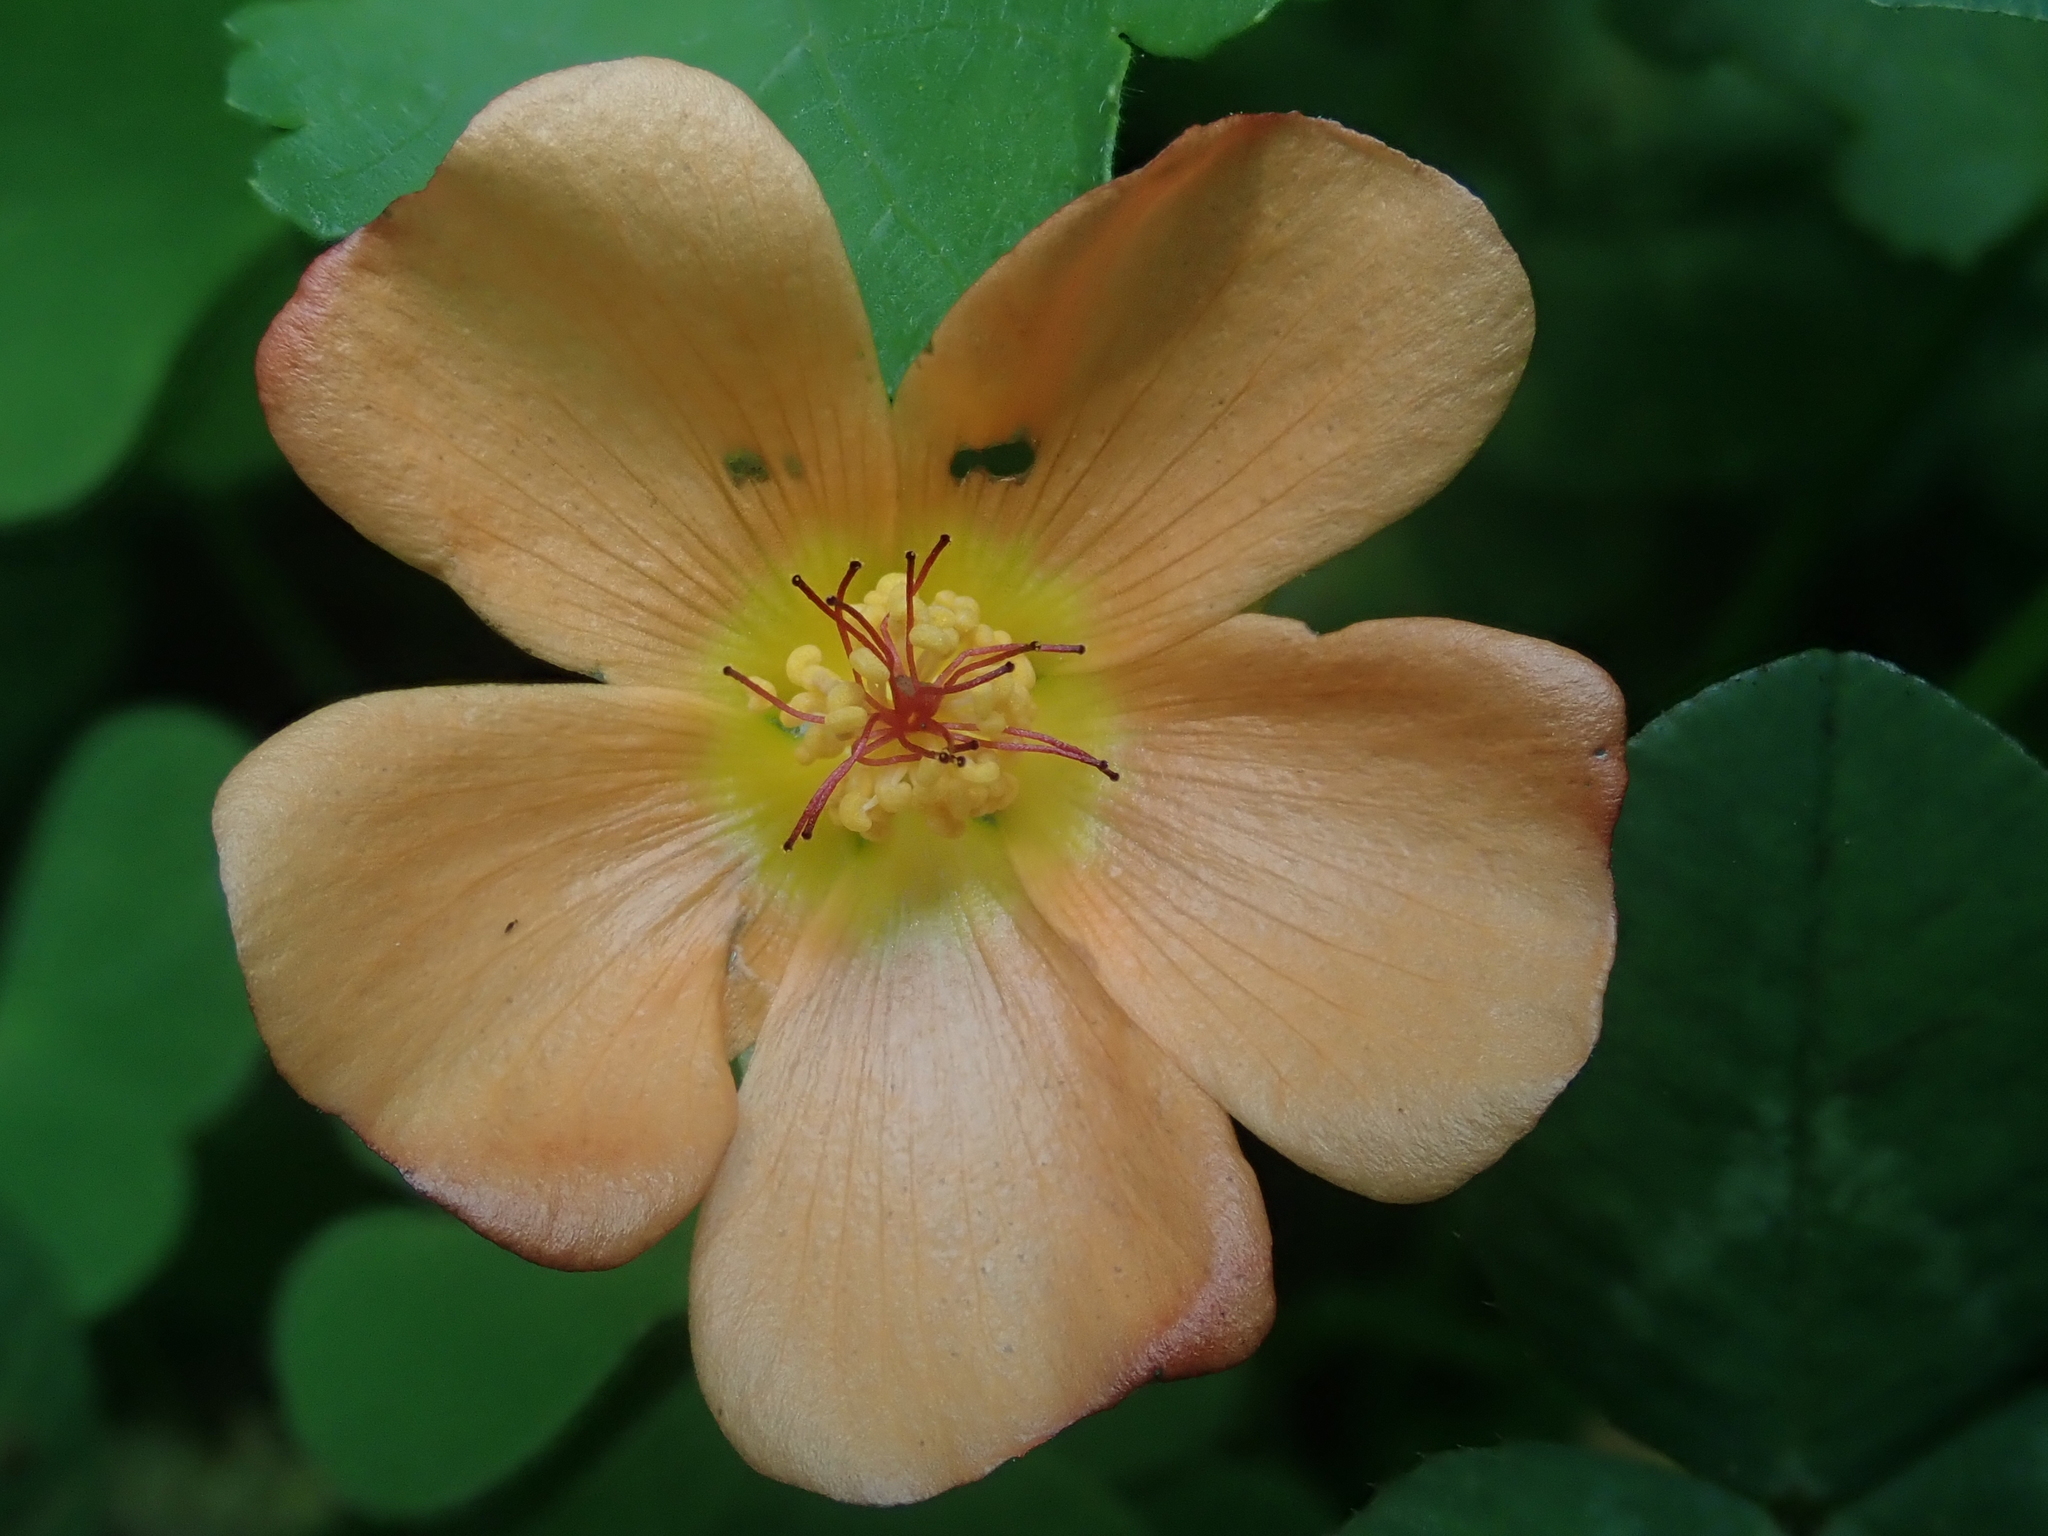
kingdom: Plantae
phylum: Tracheophyta
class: Magnoliopsida
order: Malvales
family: Malvaceae
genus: Modiolastrum
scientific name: Modiolastrum malvifolium
